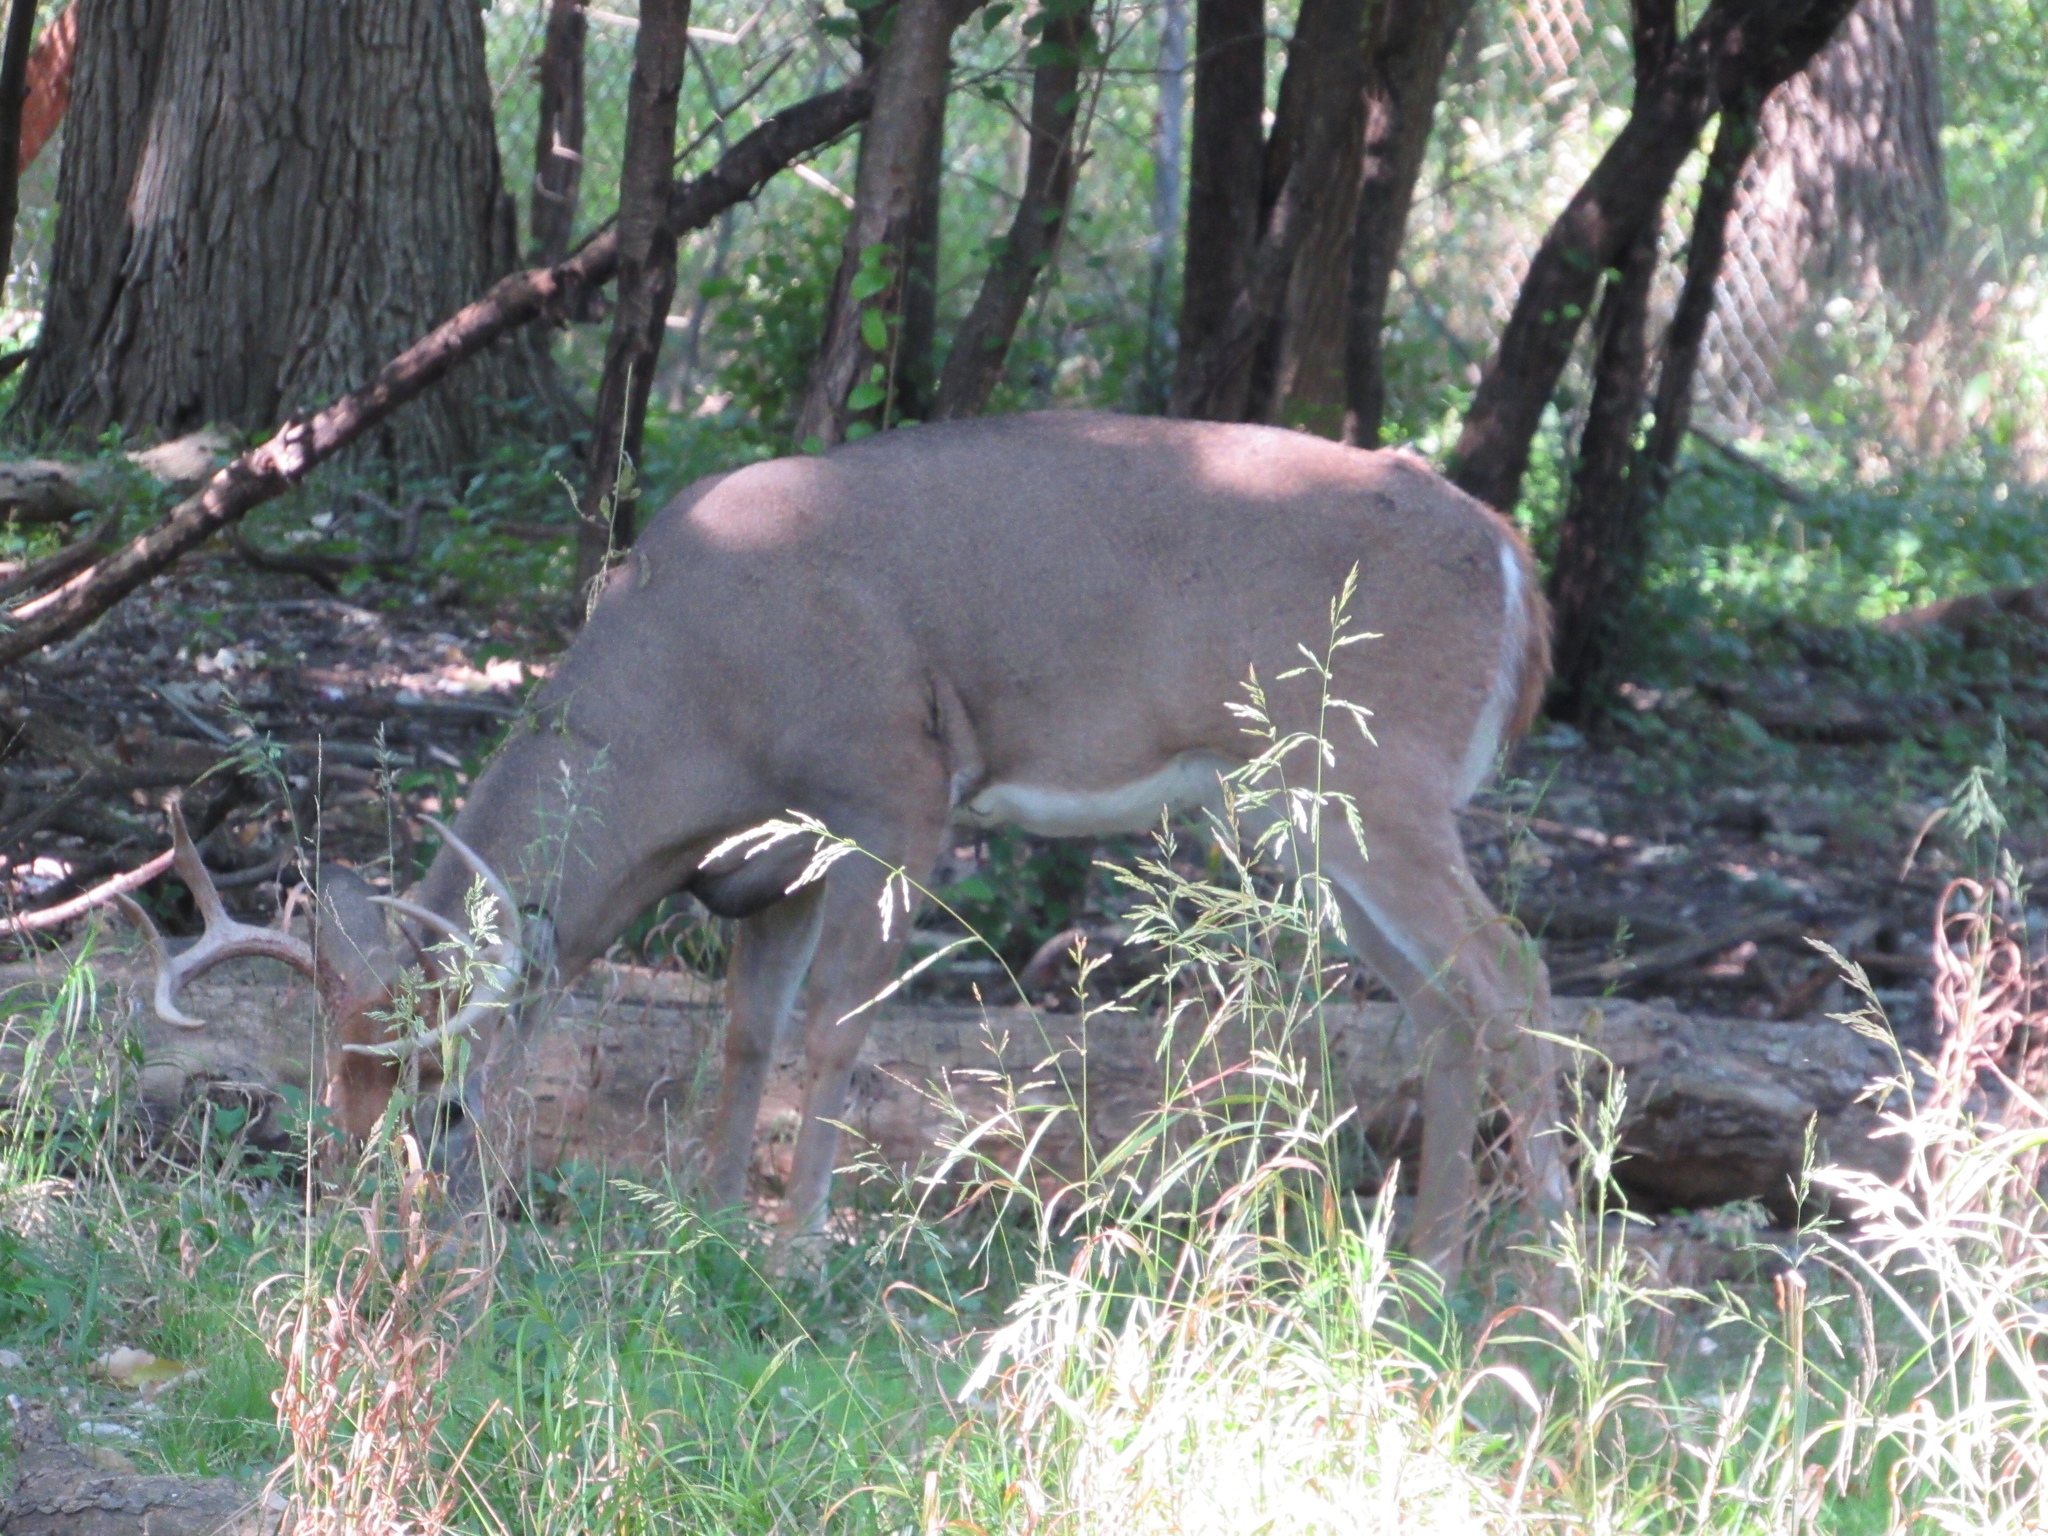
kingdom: Animalia
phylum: Chordata
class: Mammalia
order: Artiodactyla
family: Cervidae
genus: Odocoileus
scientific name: Odocoileus virginianus
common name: White-tailed deer
